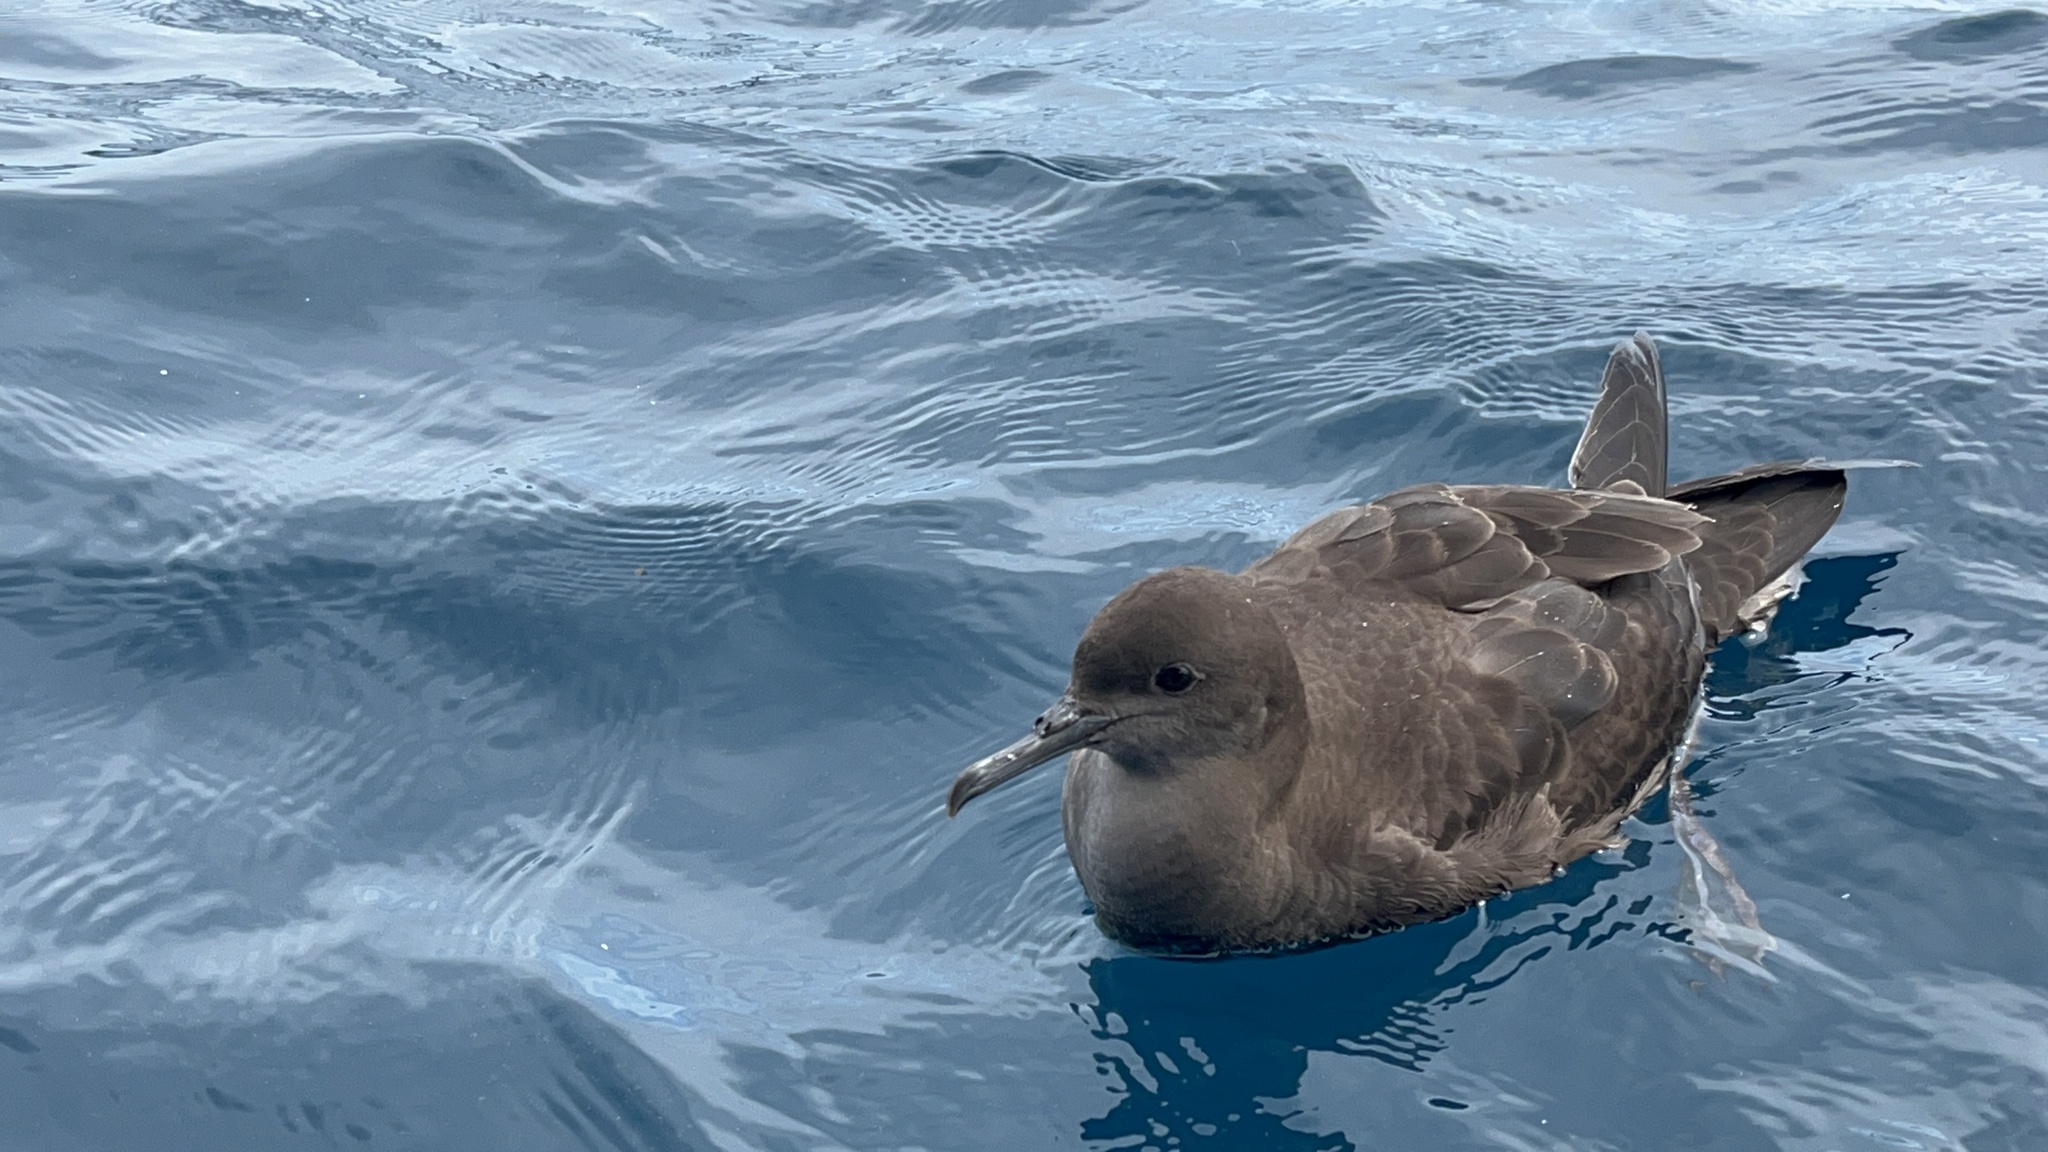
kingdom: Animalia
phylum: Chordata
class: Aves
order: Procellariiformes
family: Procellariidae
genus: Puffinus
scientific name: Puffinus griseus
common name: Sooty shearwater
